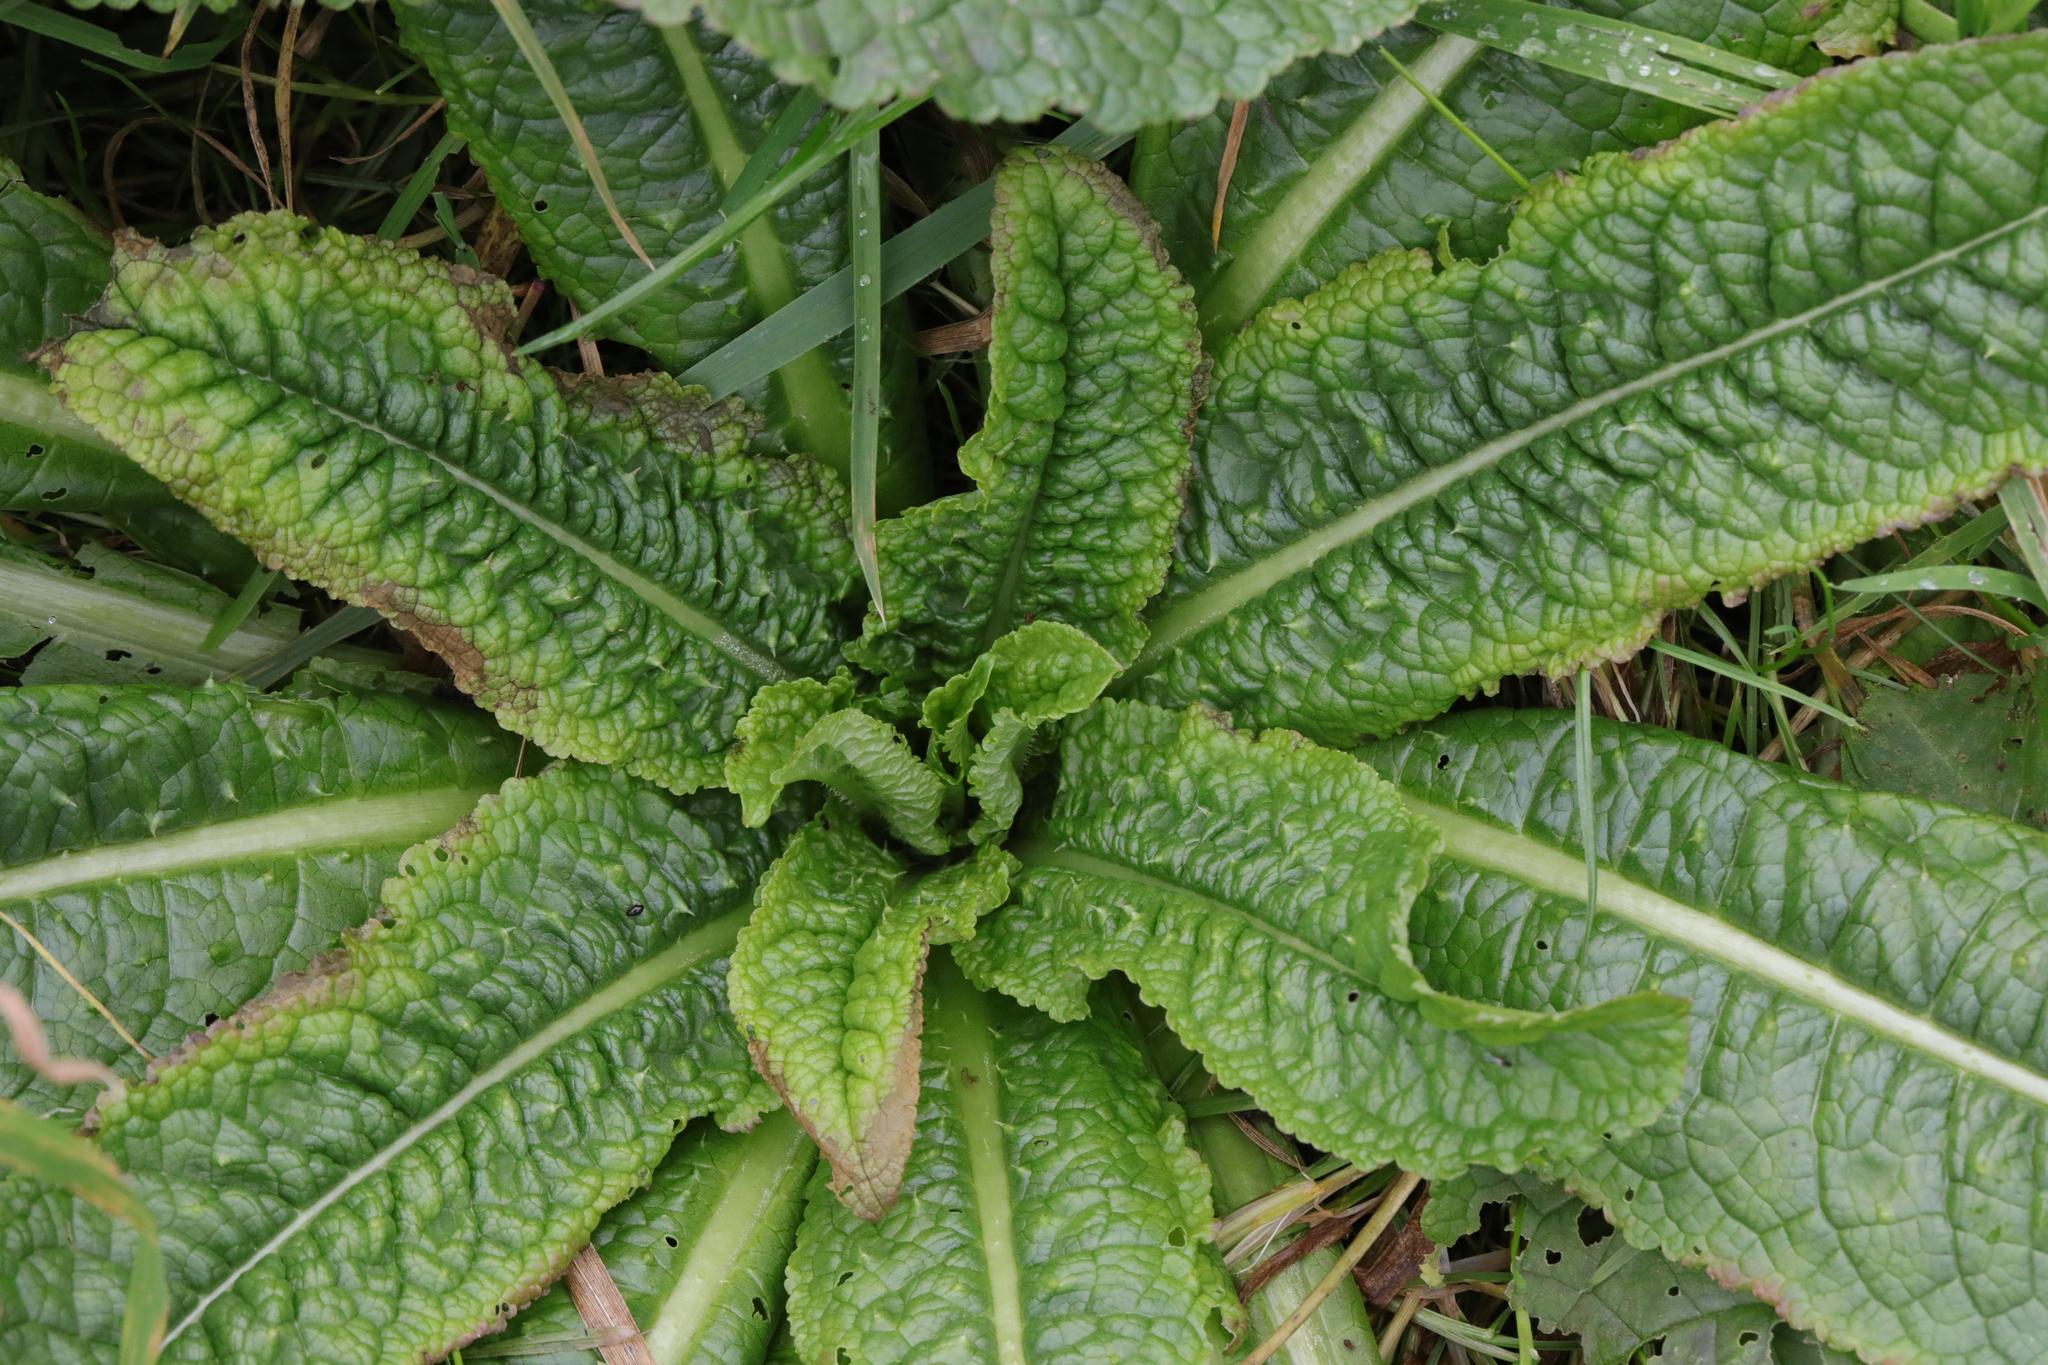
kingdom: Plantae
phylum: Tracheophyta
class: Magnoliopsida
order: Dipsacales
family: Caprifoliaceae
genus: Dipsacus
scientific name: Dipsacus fullonum
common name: Teasel
